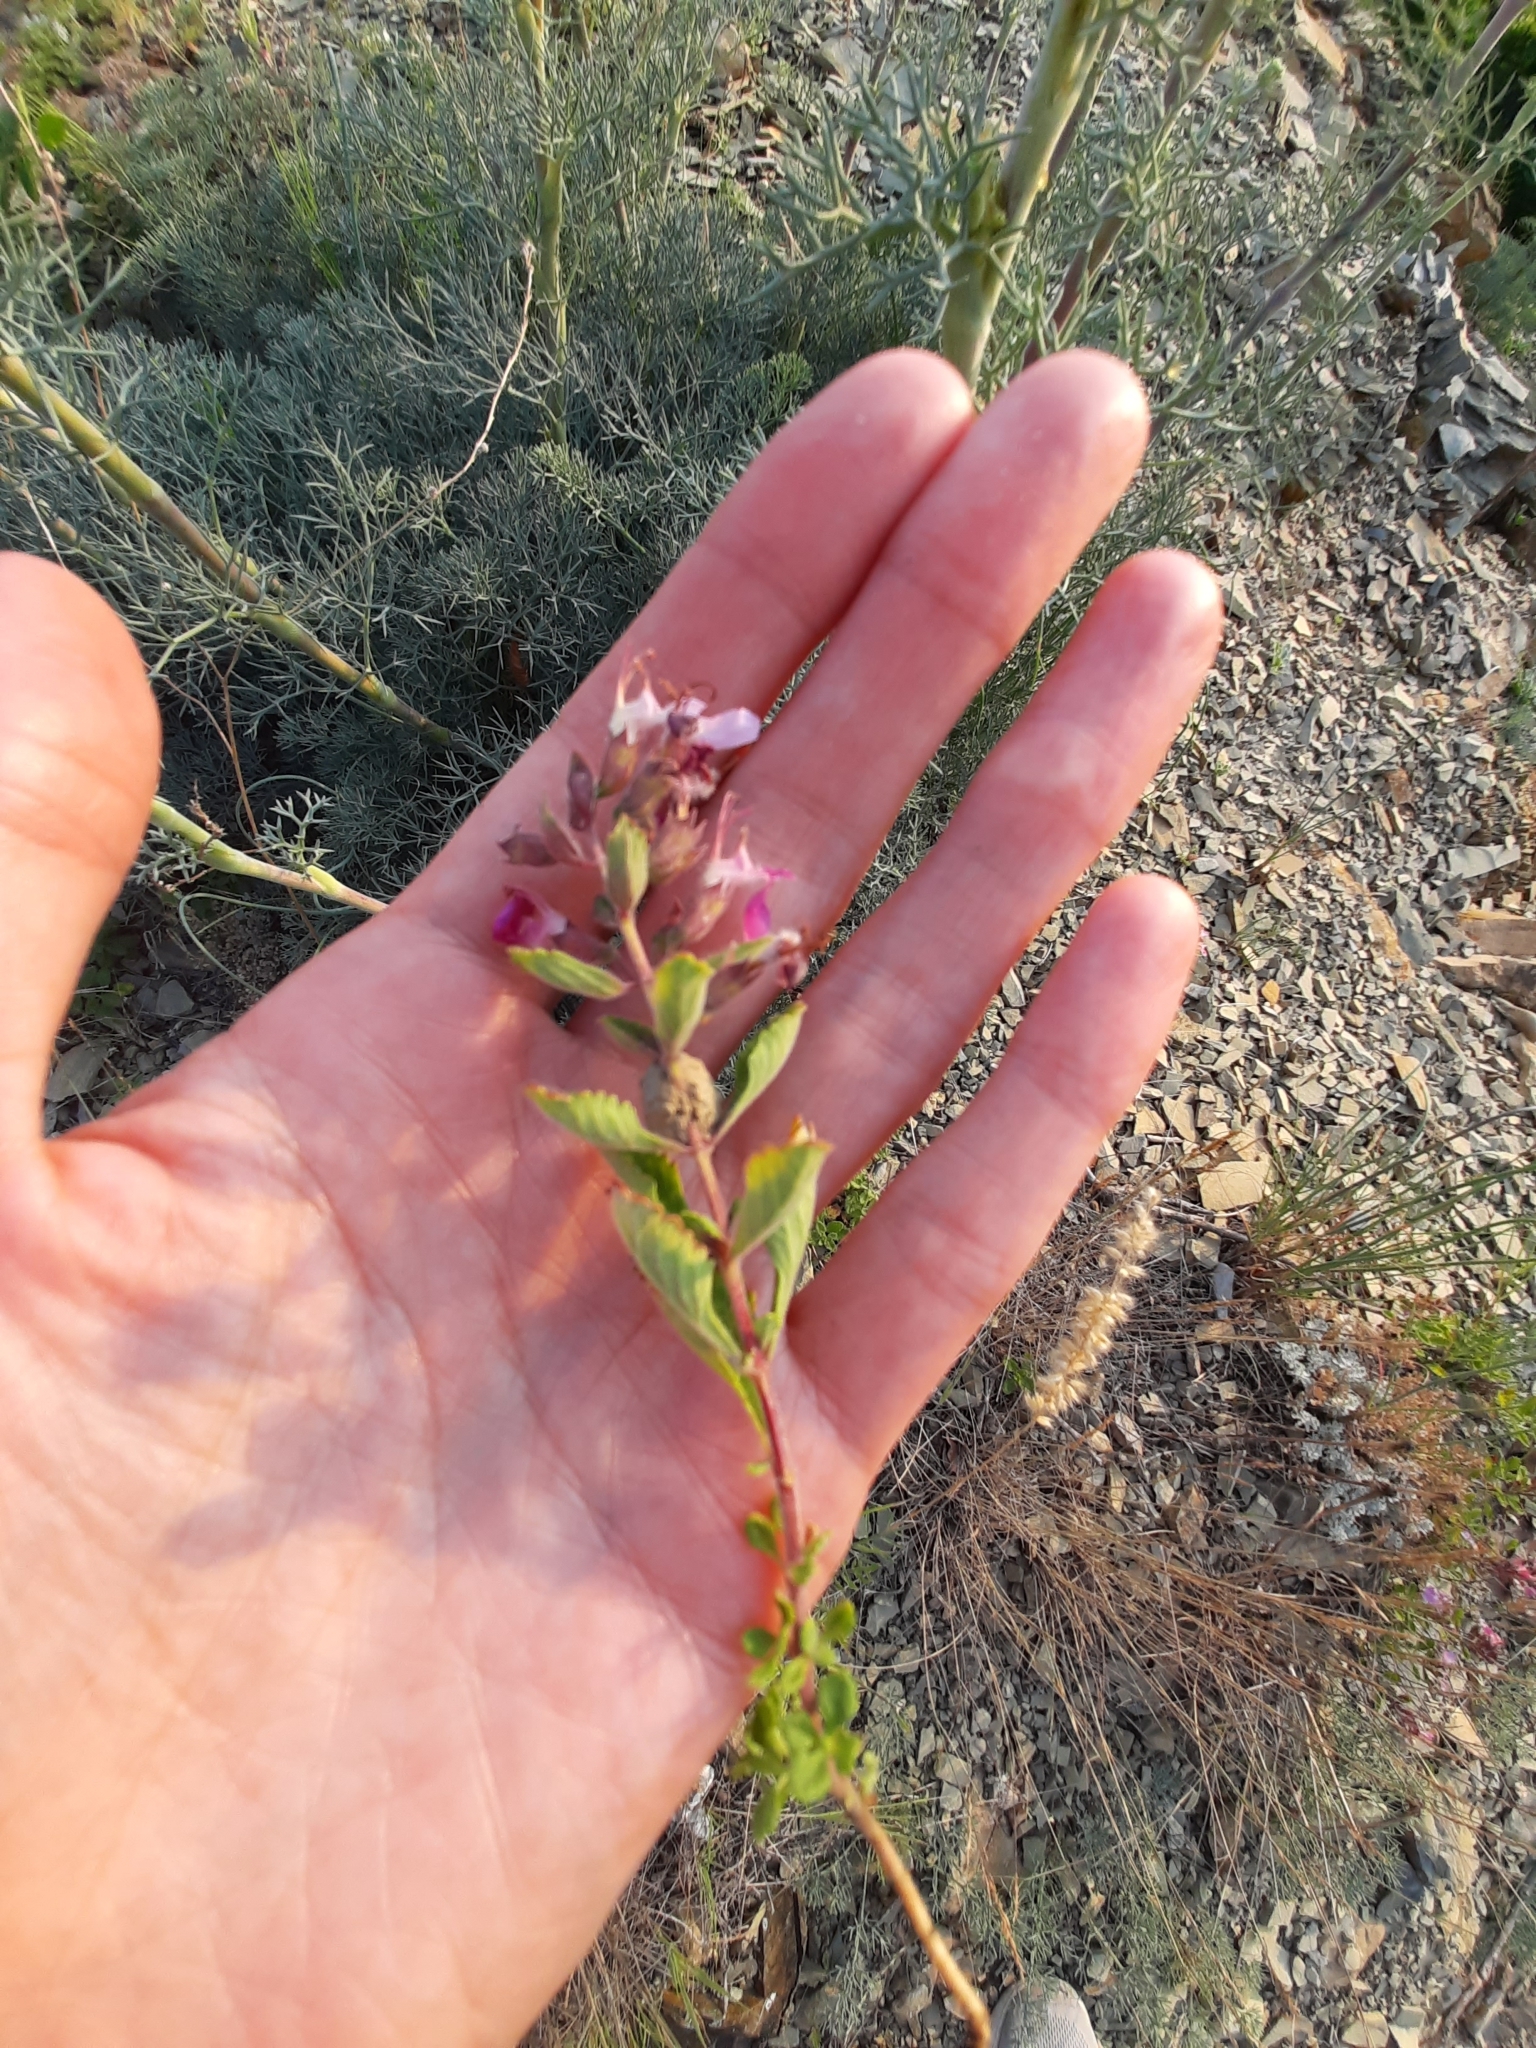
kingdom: Plantae
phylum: Tracheophyta
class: Magnoliopsida
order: Lamiales
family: Lamiaceae
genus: Teucrium
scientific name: Teucrium chamaedrys
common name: Wall germander
